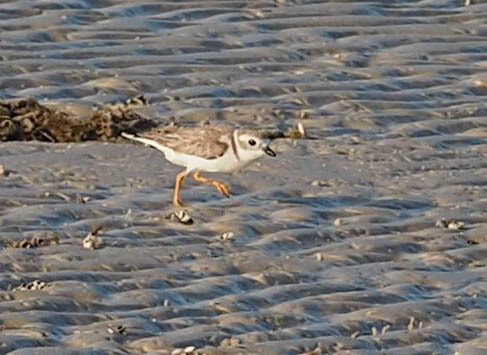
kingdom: Animalia
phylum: Chordata
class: Aves
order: Charadriiformes
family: Charadriidae
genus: Charadrius
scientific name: Charadrius melodus
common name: Piping plover
